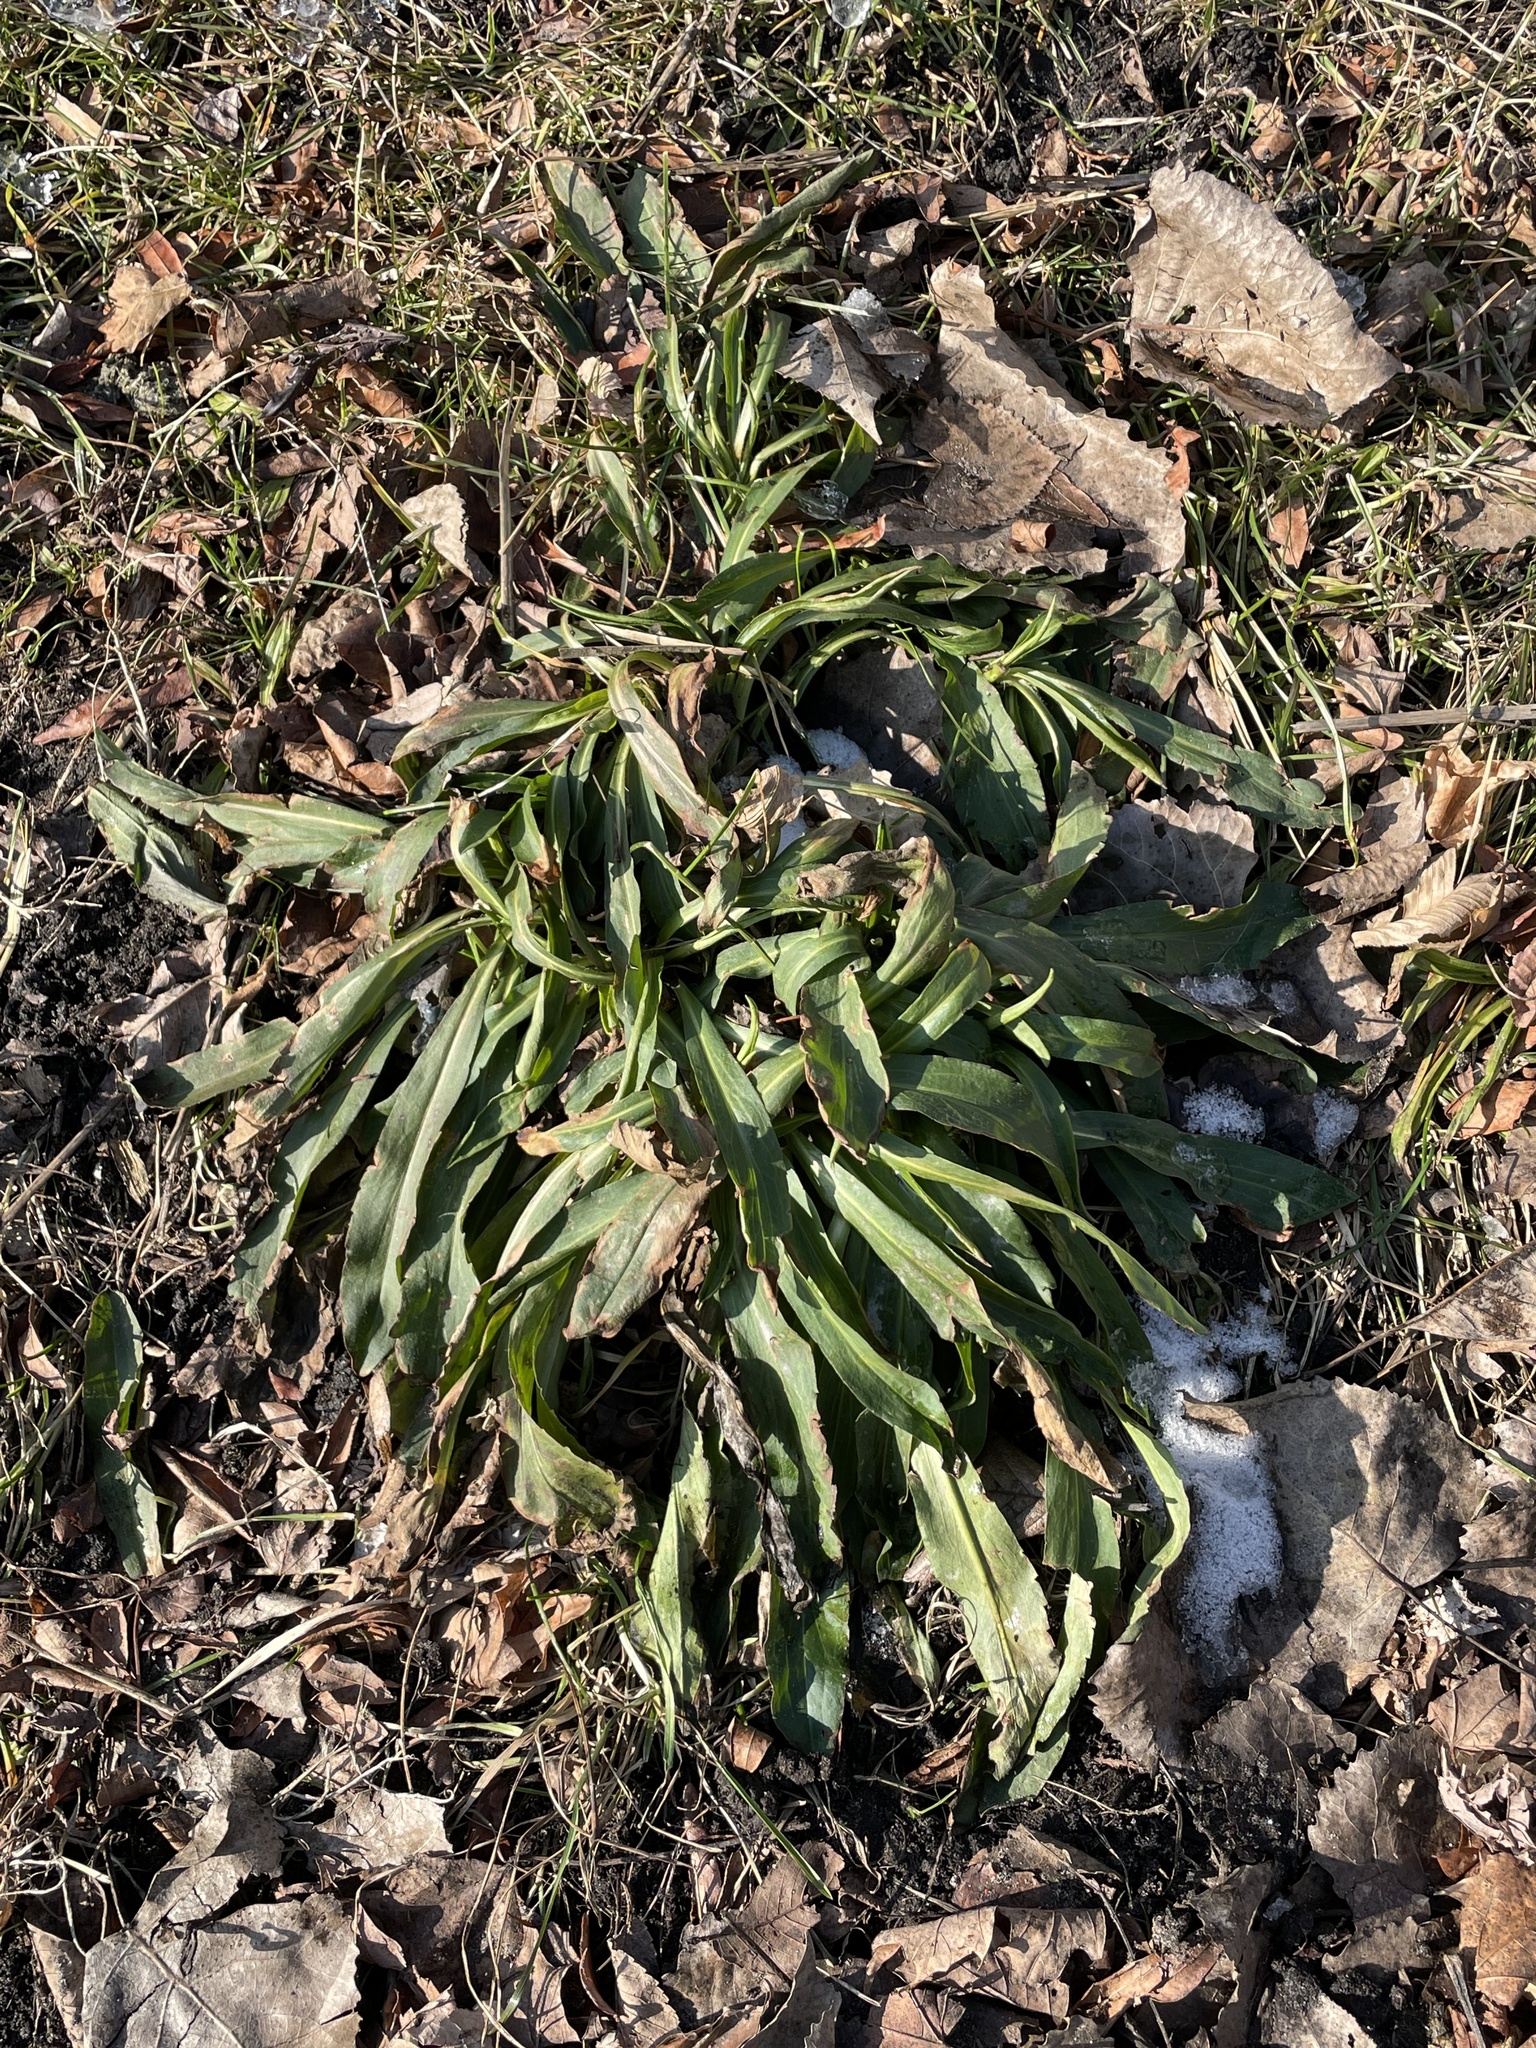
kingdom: Plantae
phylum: Tracheophyta
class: Magnoliopsida
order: Brassicales
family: Brassicaceae
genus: Hesperis
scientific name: Hesperis matronalis
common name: Dame's-violet
